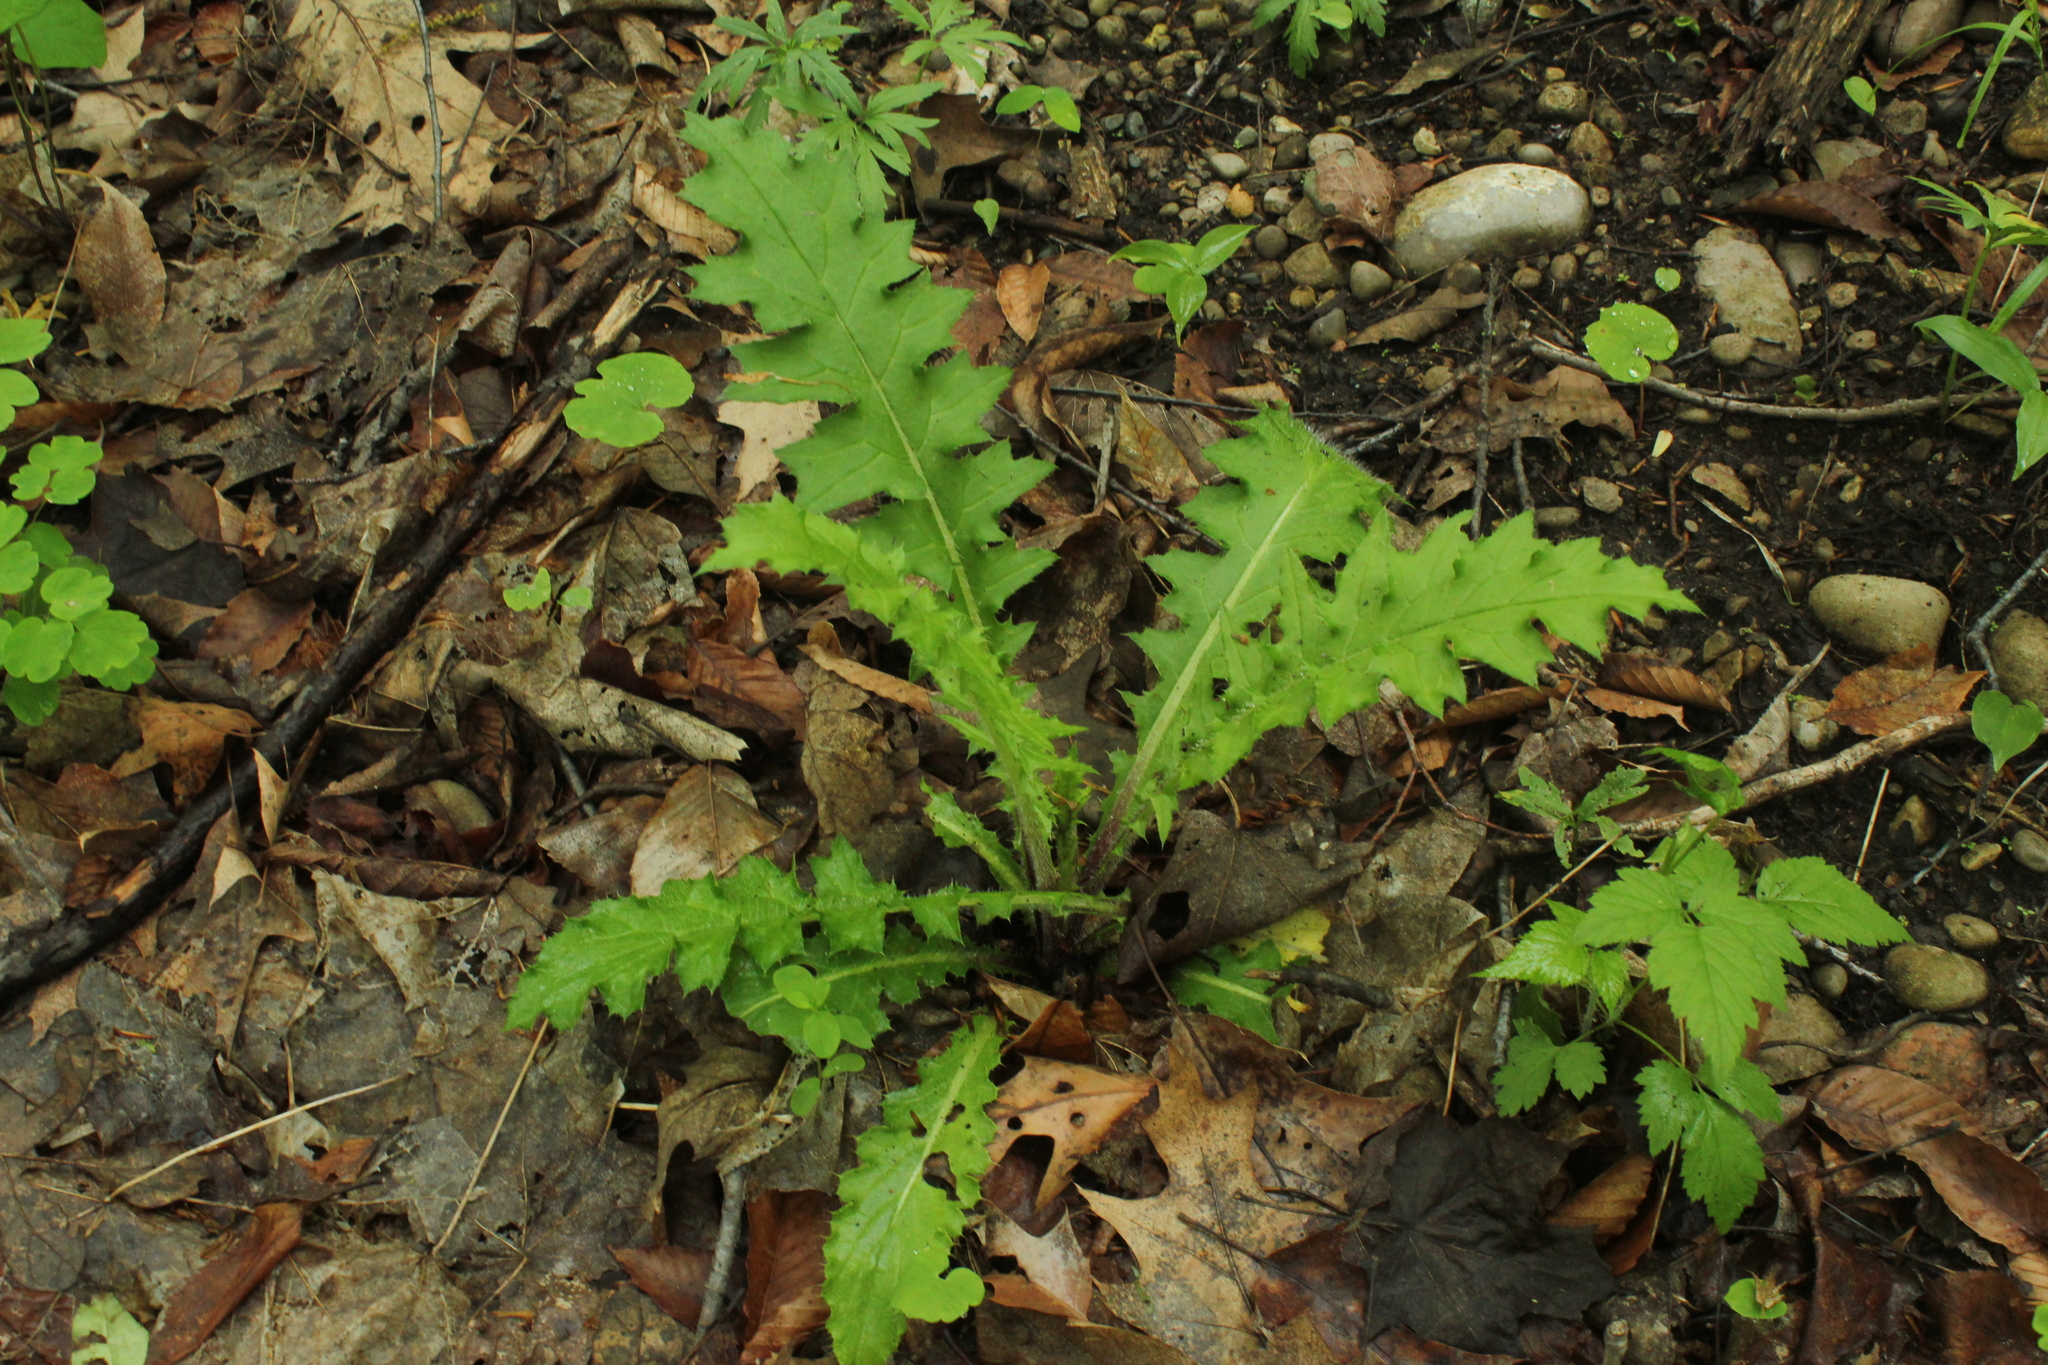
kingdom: Plantae
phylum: Tracheophyta
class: Magnoliopsida
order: Asterales
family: Asteraceae
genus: Cirsium
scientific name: Cirsium muticum
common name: Dunce-nettle
